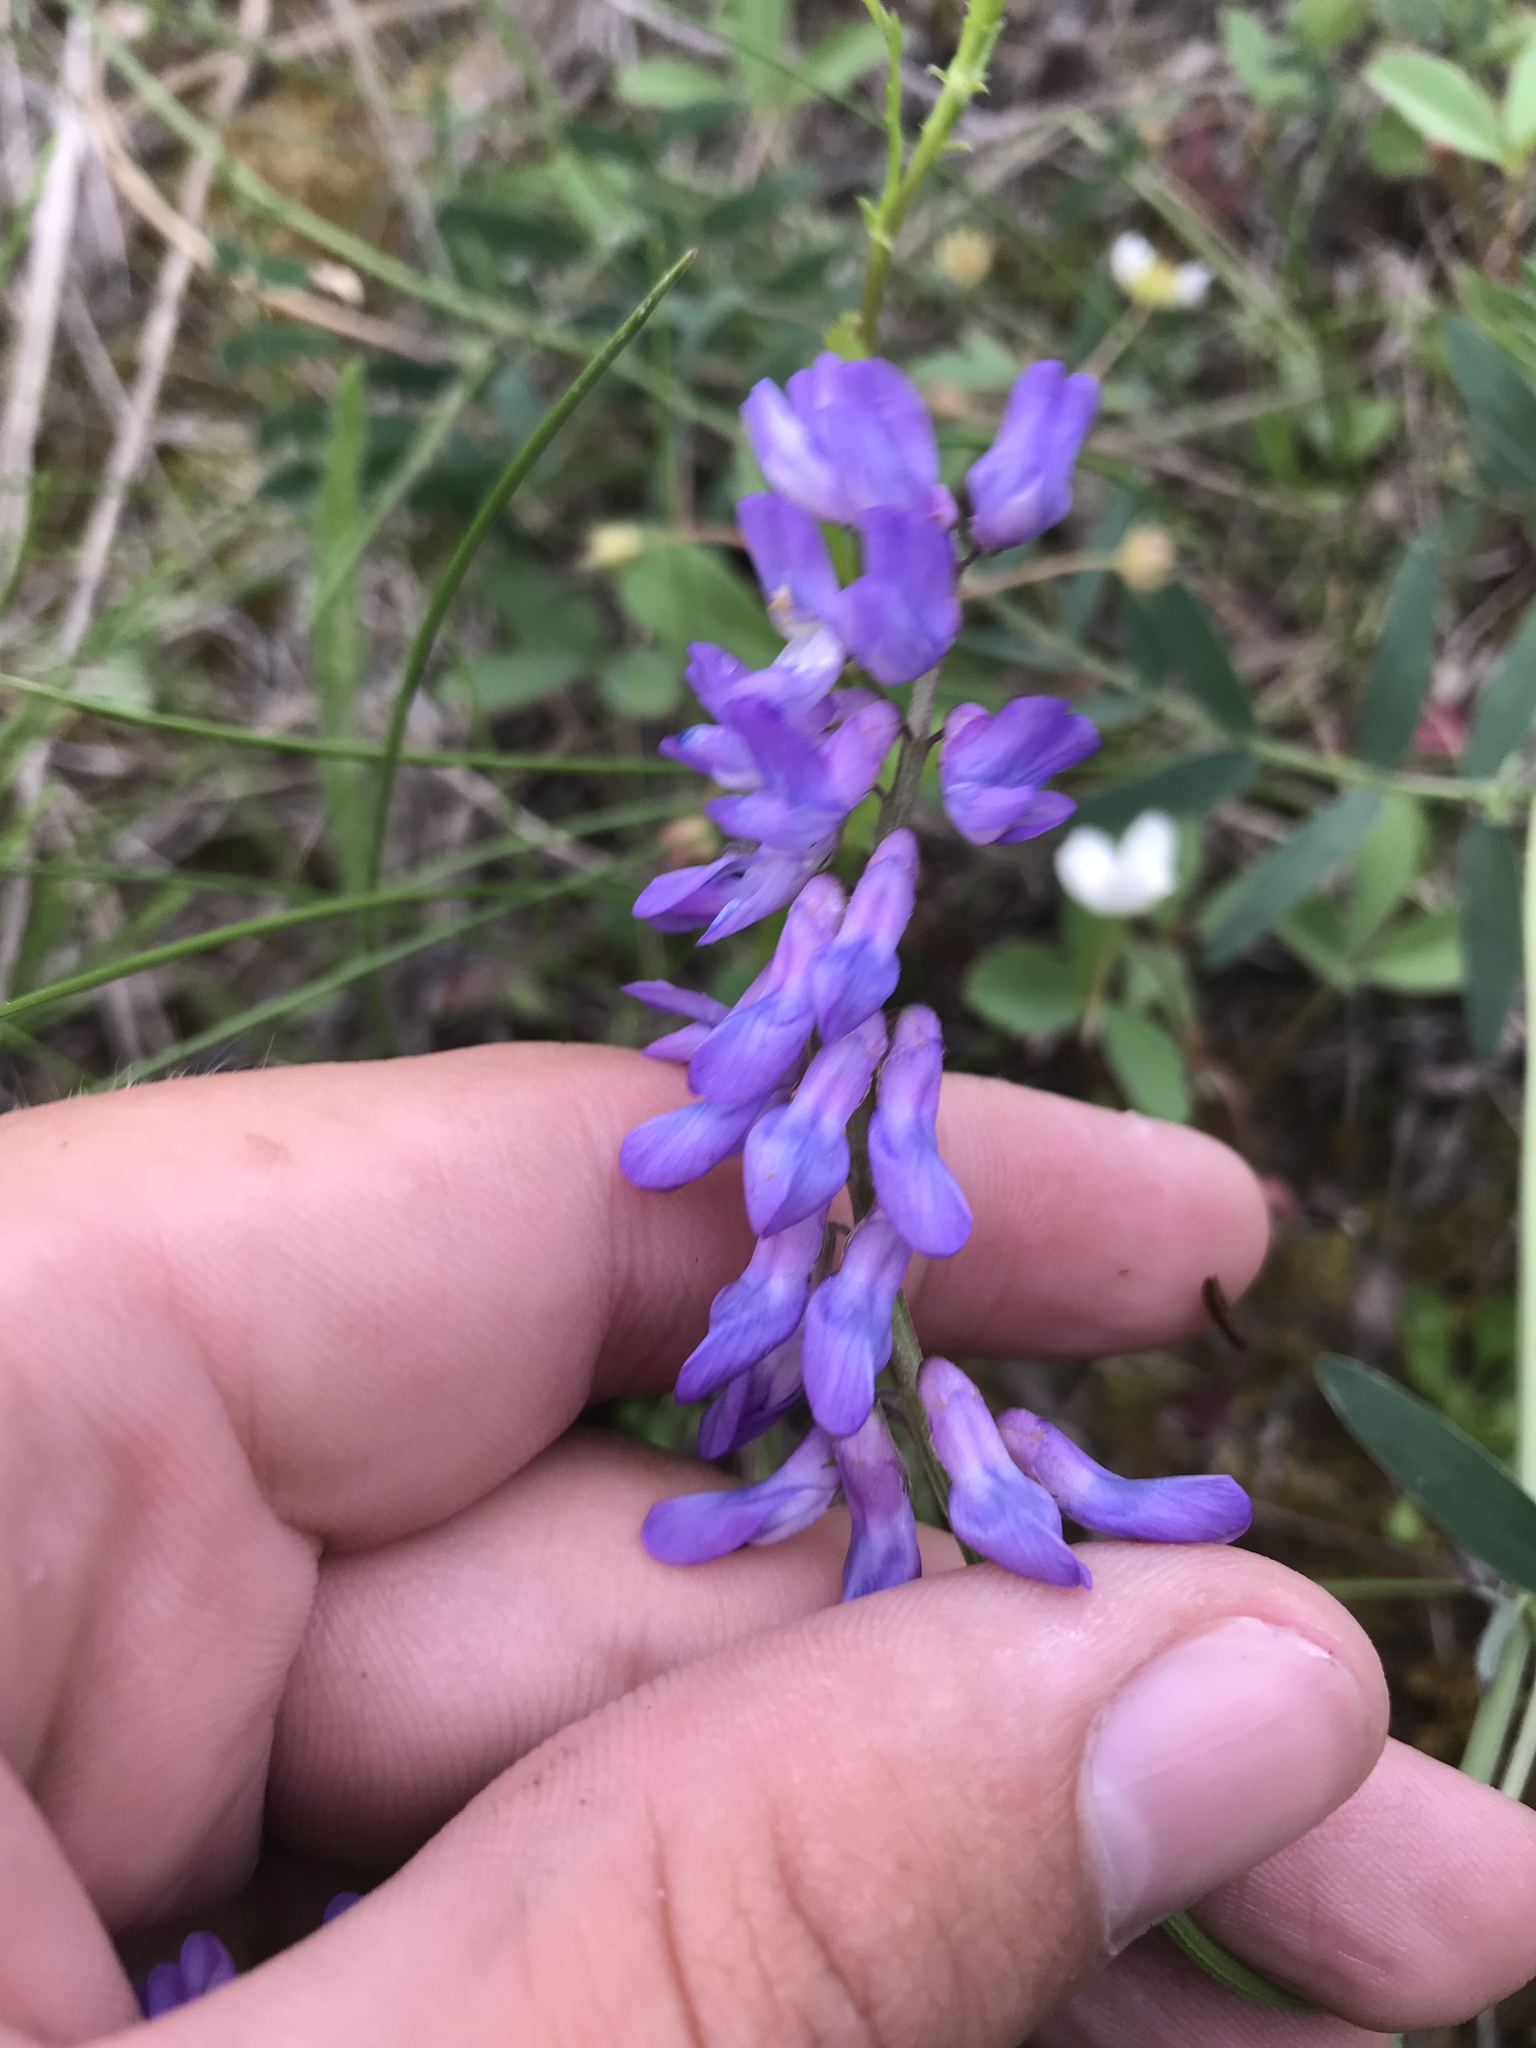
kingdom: Plantae
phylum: Tracheophyta
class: Magnoliopsida
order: Fabales
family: Fabaceae
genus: Vicia
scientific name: Vicia cracca
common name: Bird vetch
